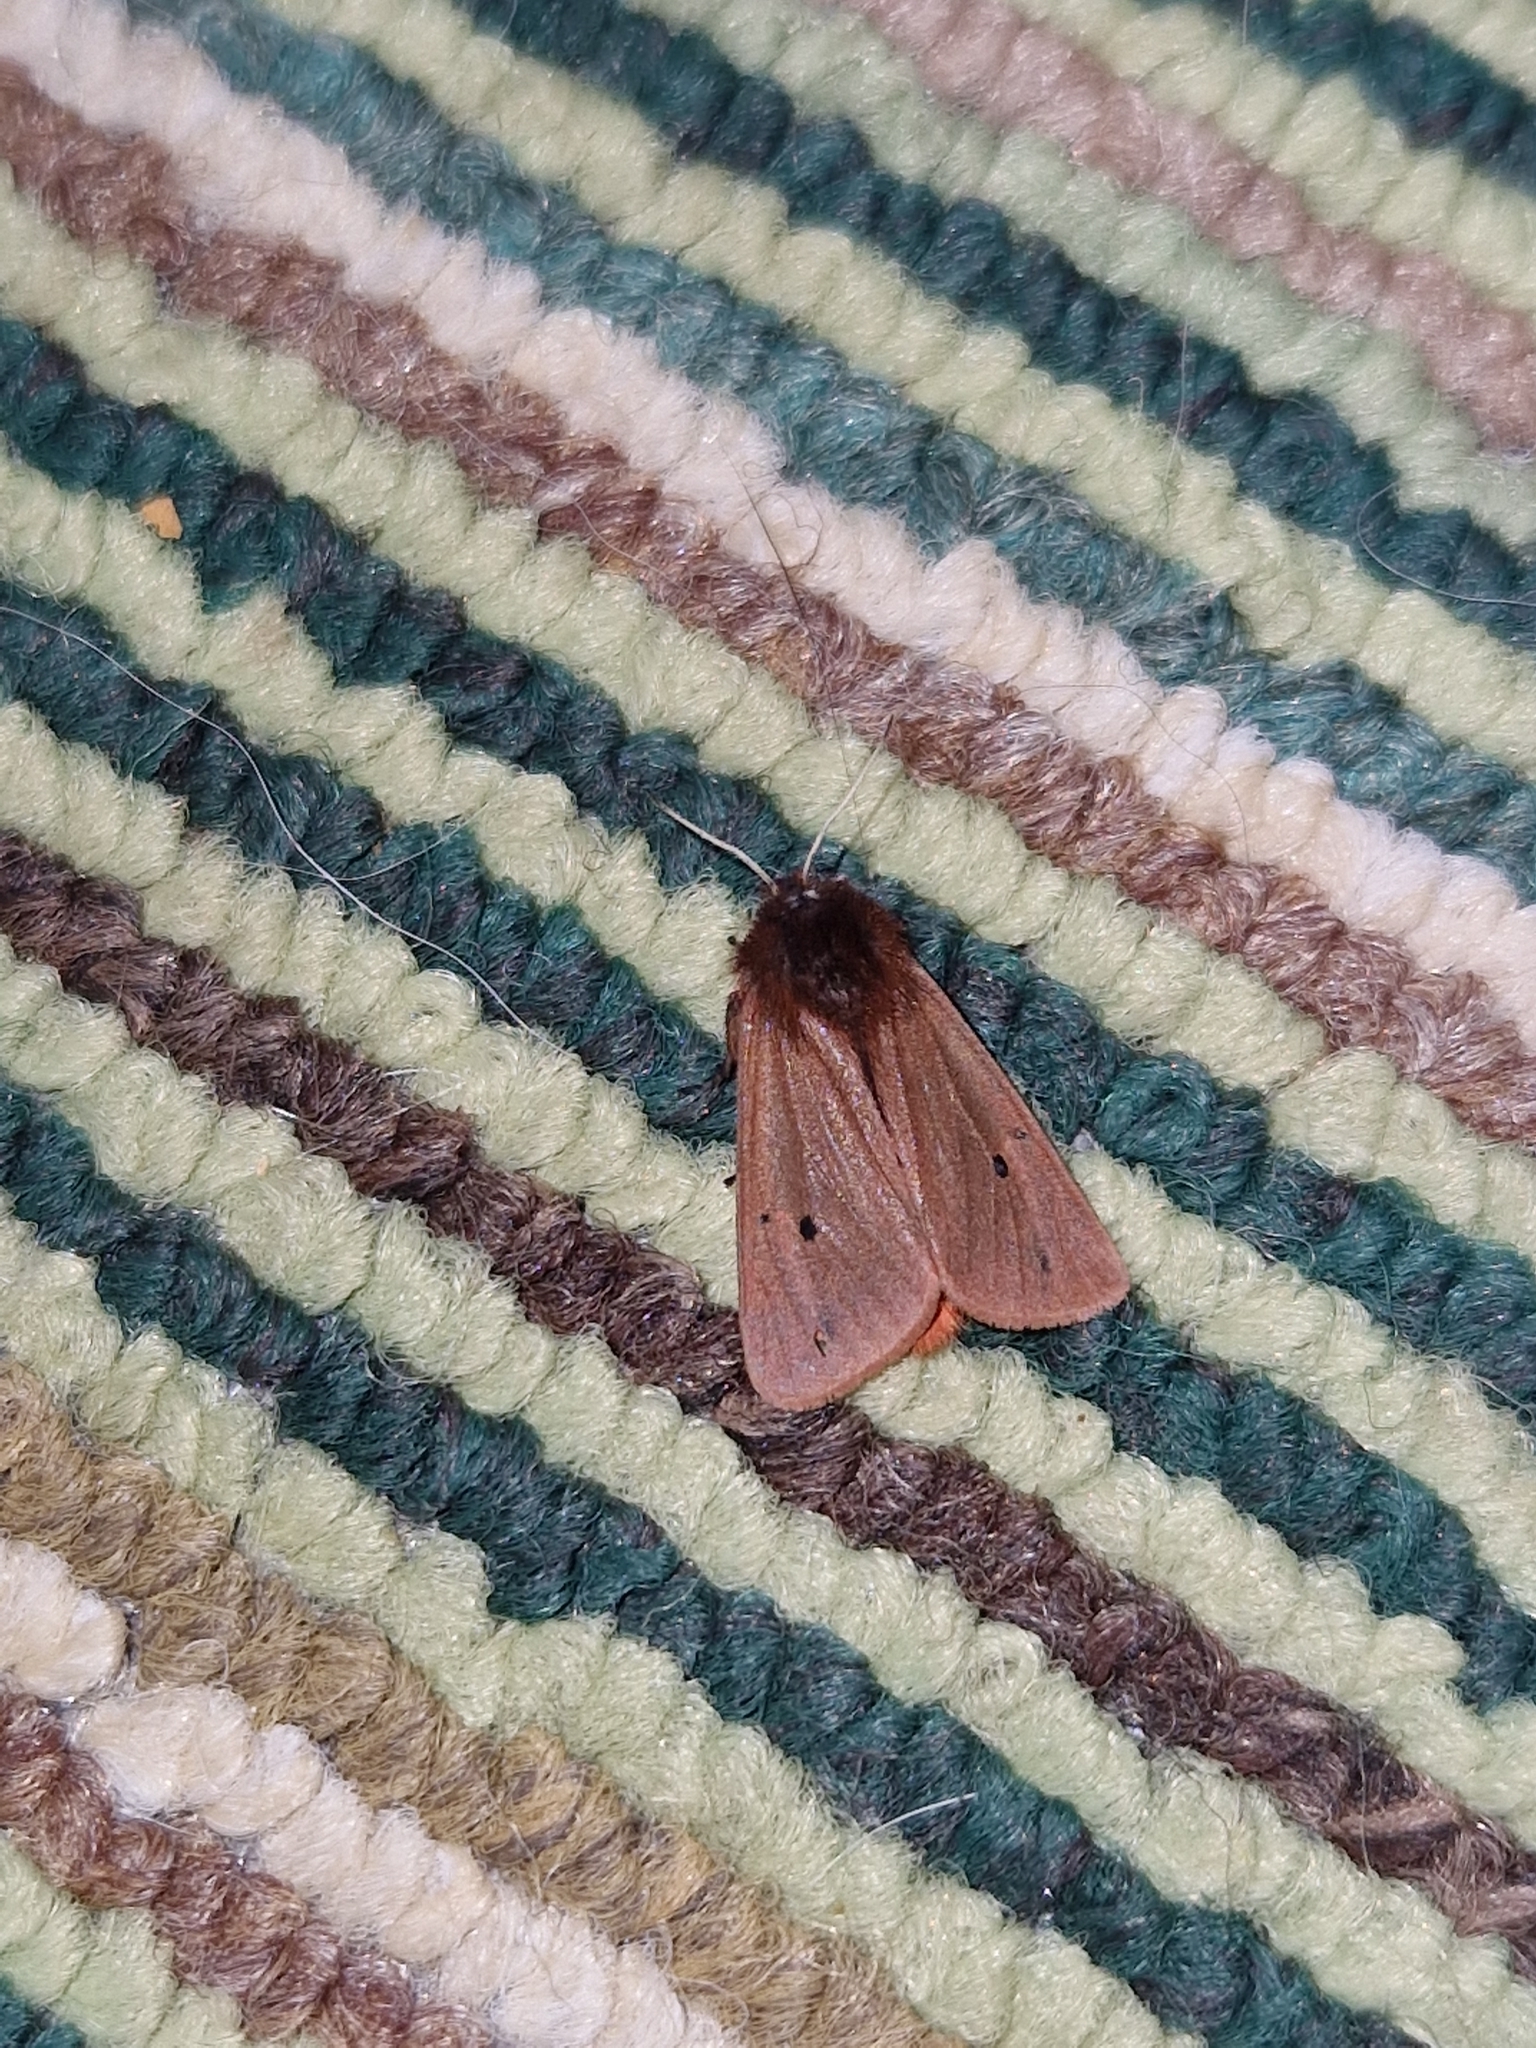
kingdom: Animalia
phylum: Arthropoda
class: Insecta
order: Lepidoptera
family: Erebidae
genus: Phragmatobia
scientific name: Phragmatobia fuliginosa
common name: Ruby tiger
